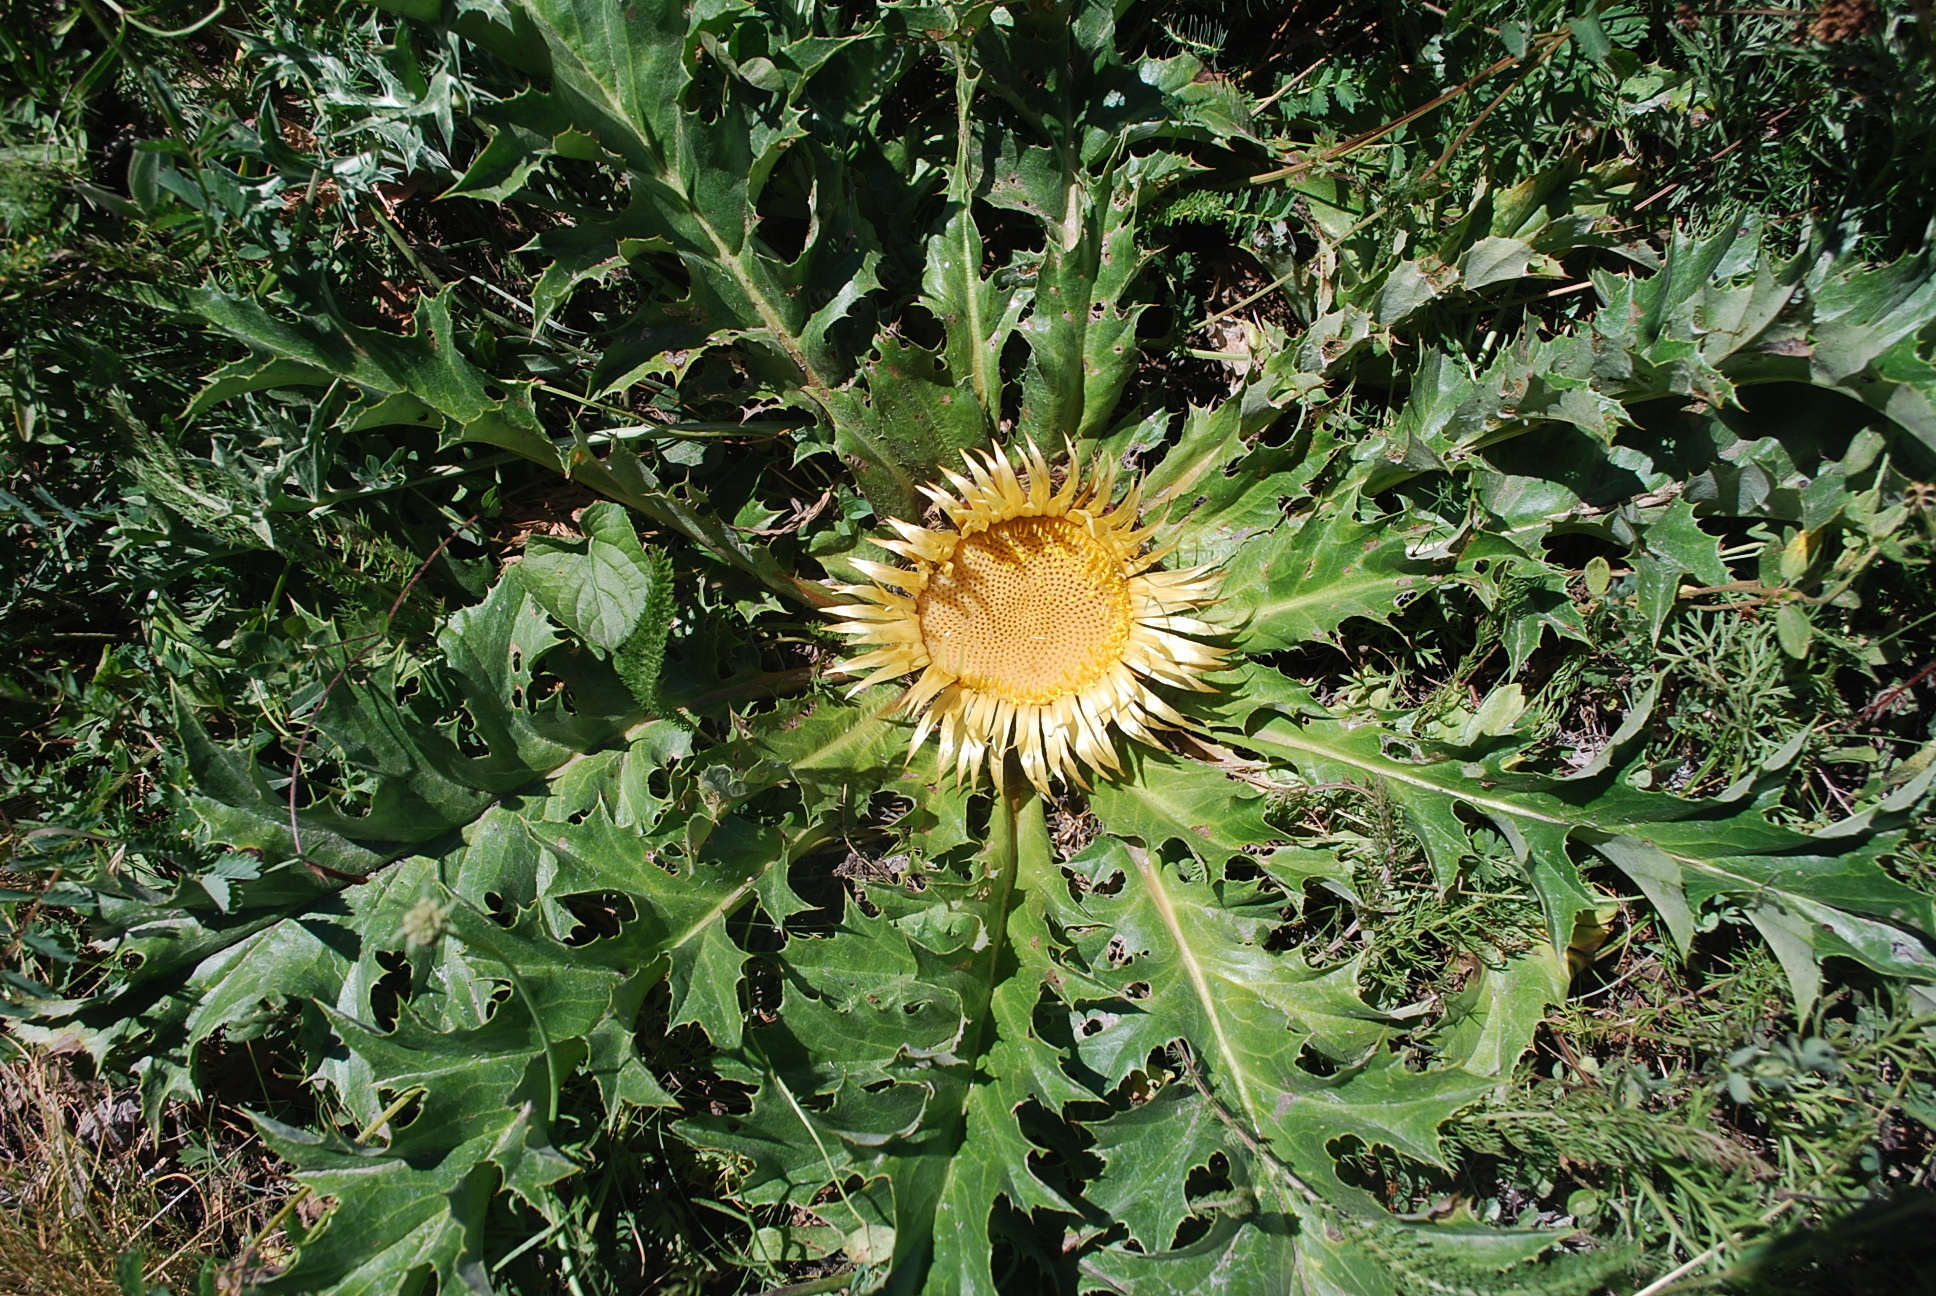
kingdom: Plantae
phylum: Tracheophyta
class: Magnoliopsida
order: Asterales
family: Asteraceae
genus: Carlina
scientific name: Carlina acanthifolia
